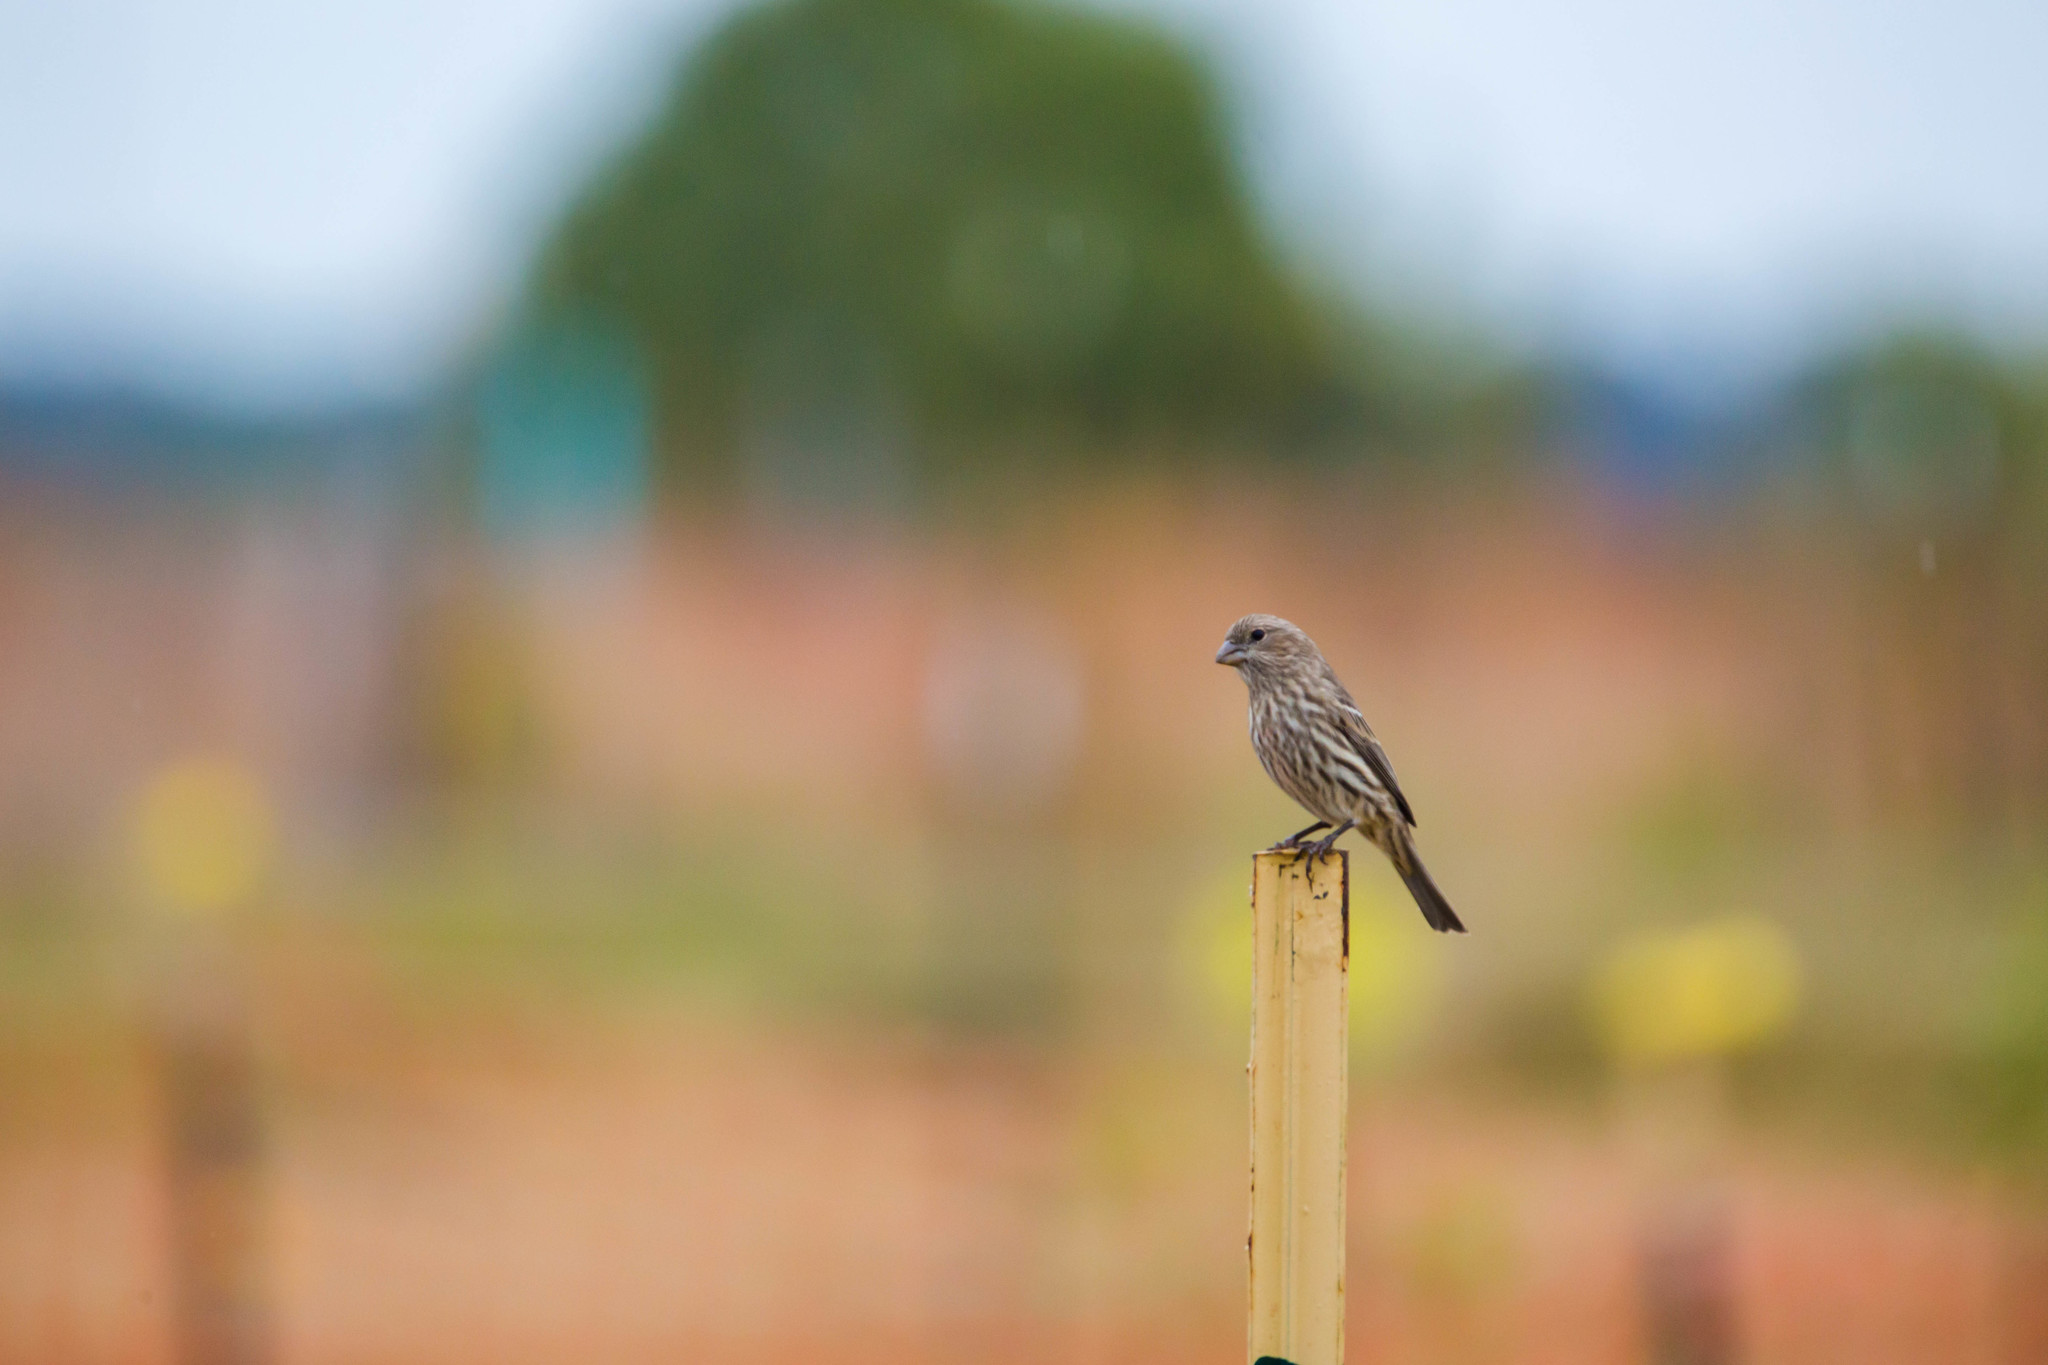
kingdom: Animalia
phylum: Chordata
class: Aves
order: Passeriformes
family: Fringillidae
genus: Haemorhous
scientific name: Haemorhous mexicanus
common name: House finch
